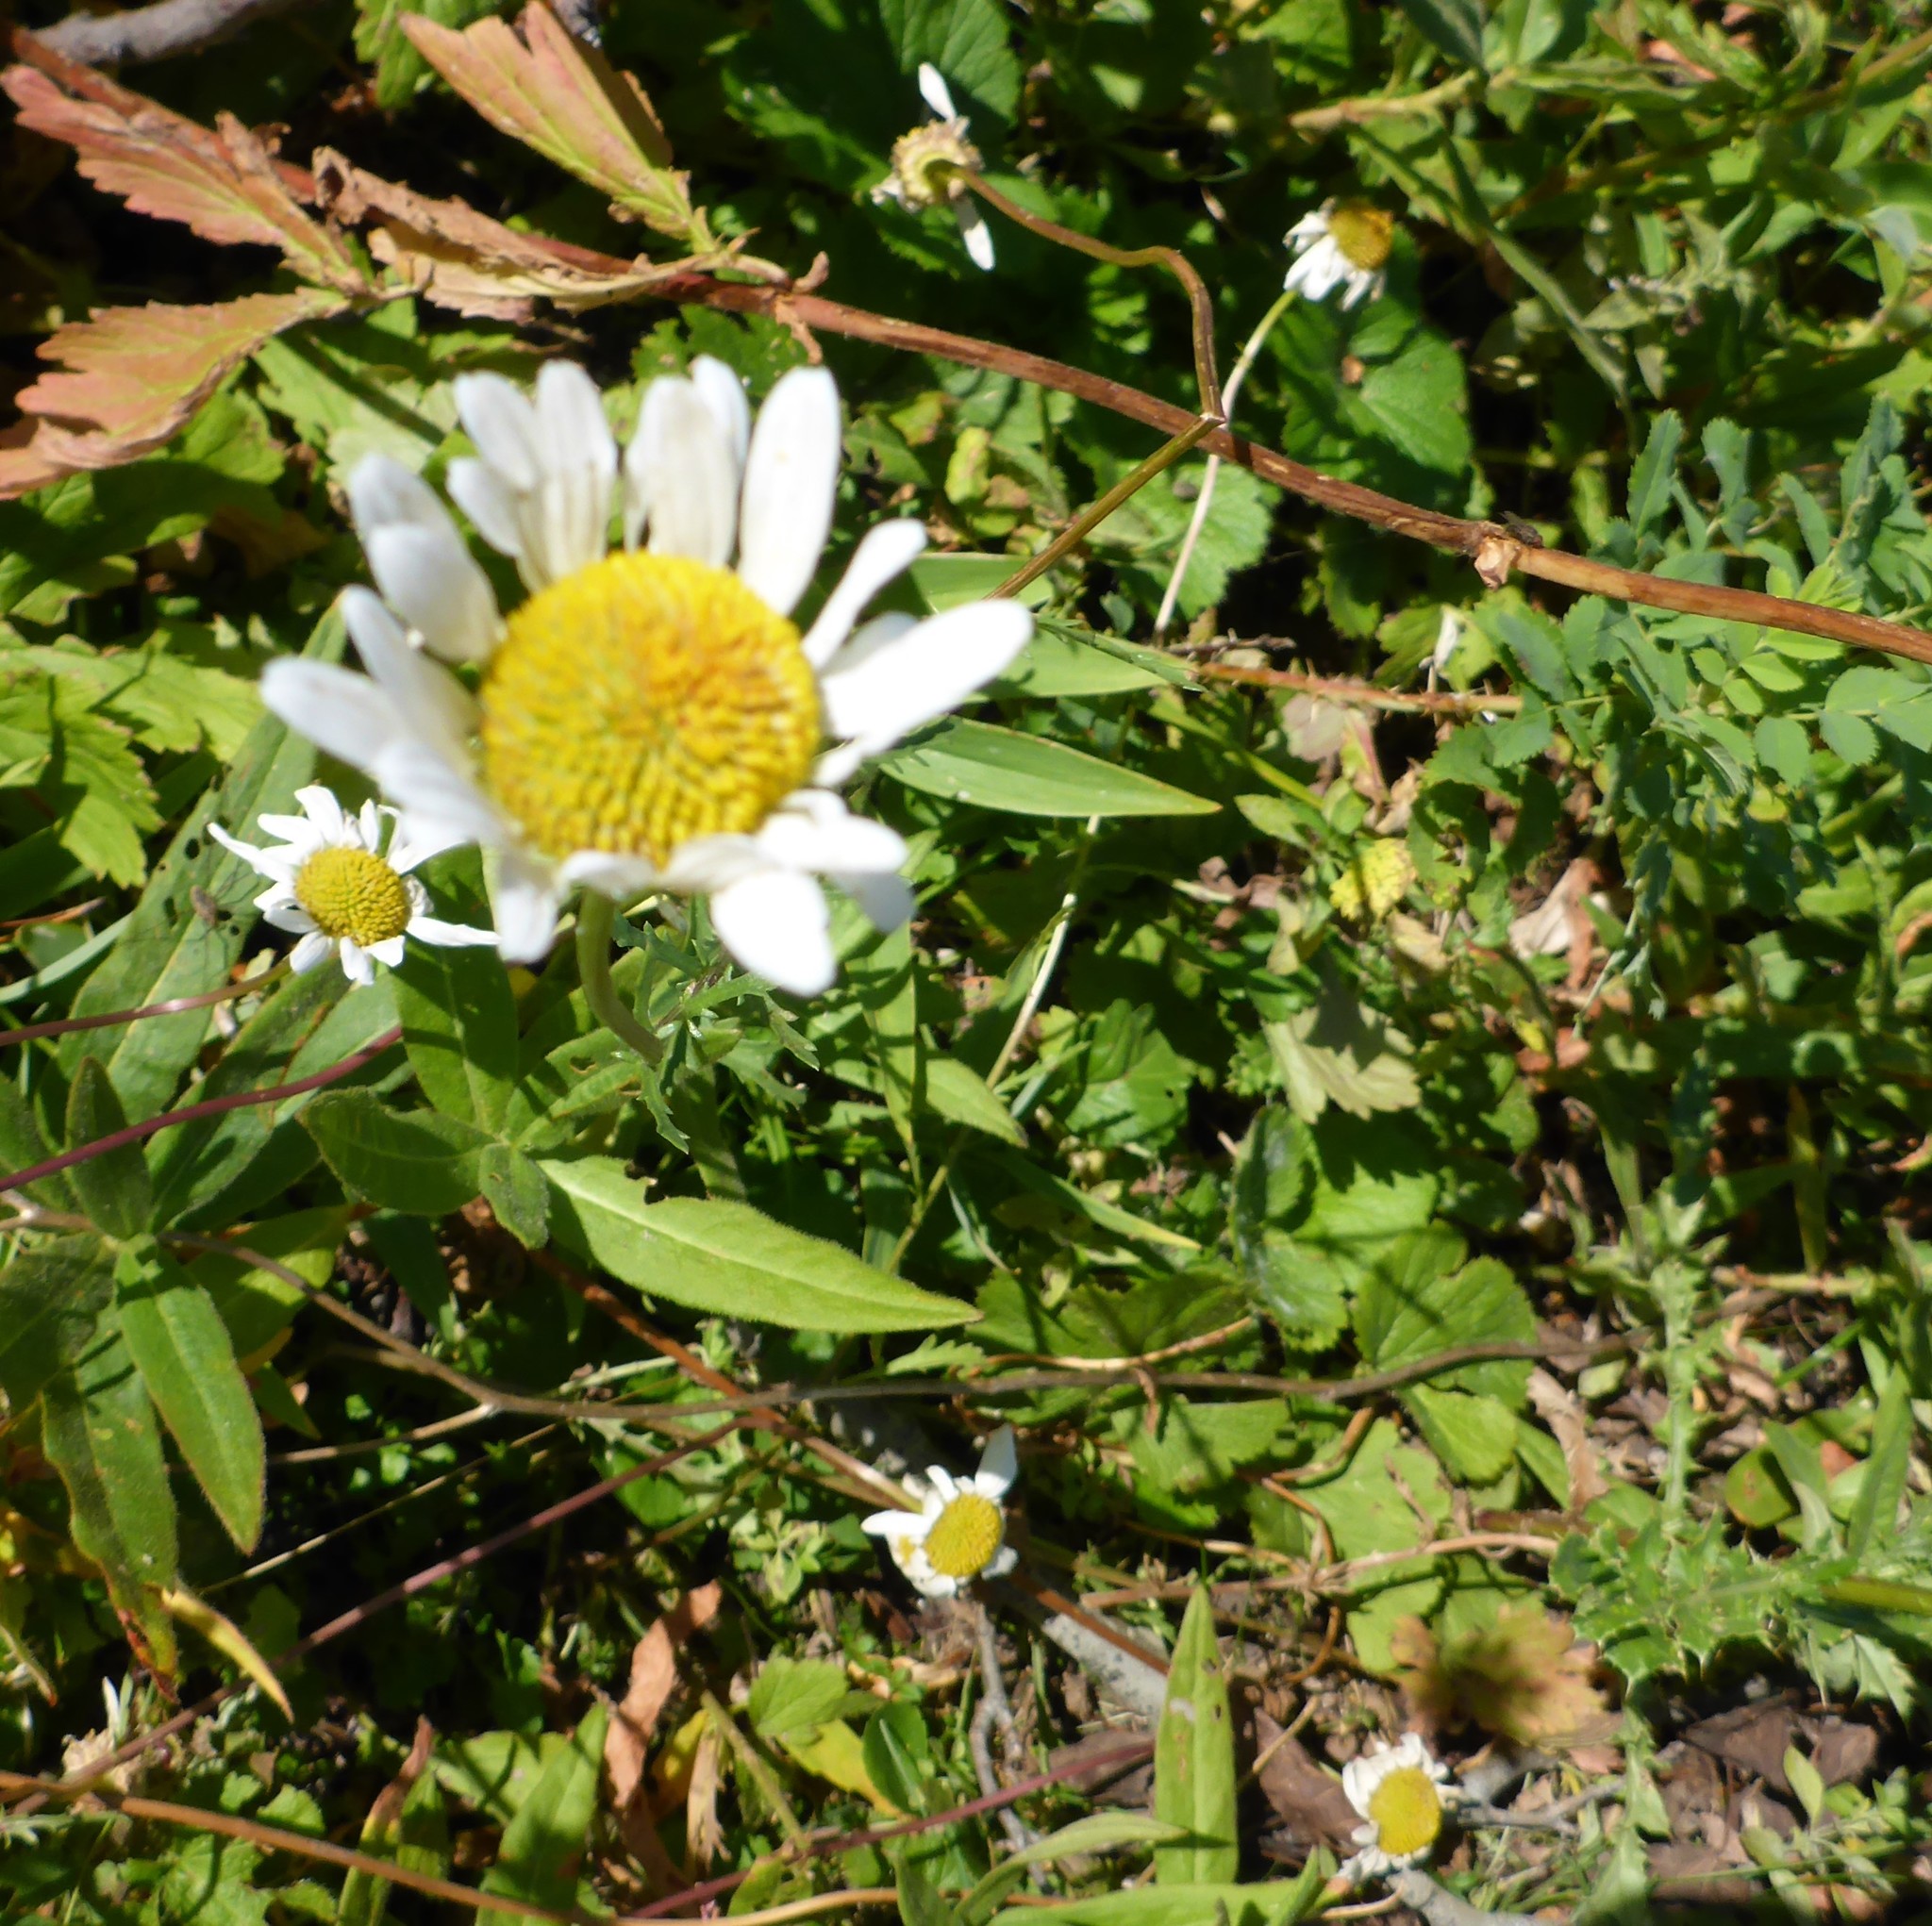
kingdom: Plantae
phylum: Tracheophyta
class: Magnoliopsida
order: Asterales
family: Asteraceae
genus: Leucanthemum
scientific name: Leucanthemum vulgare
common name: Oxeye daisy
